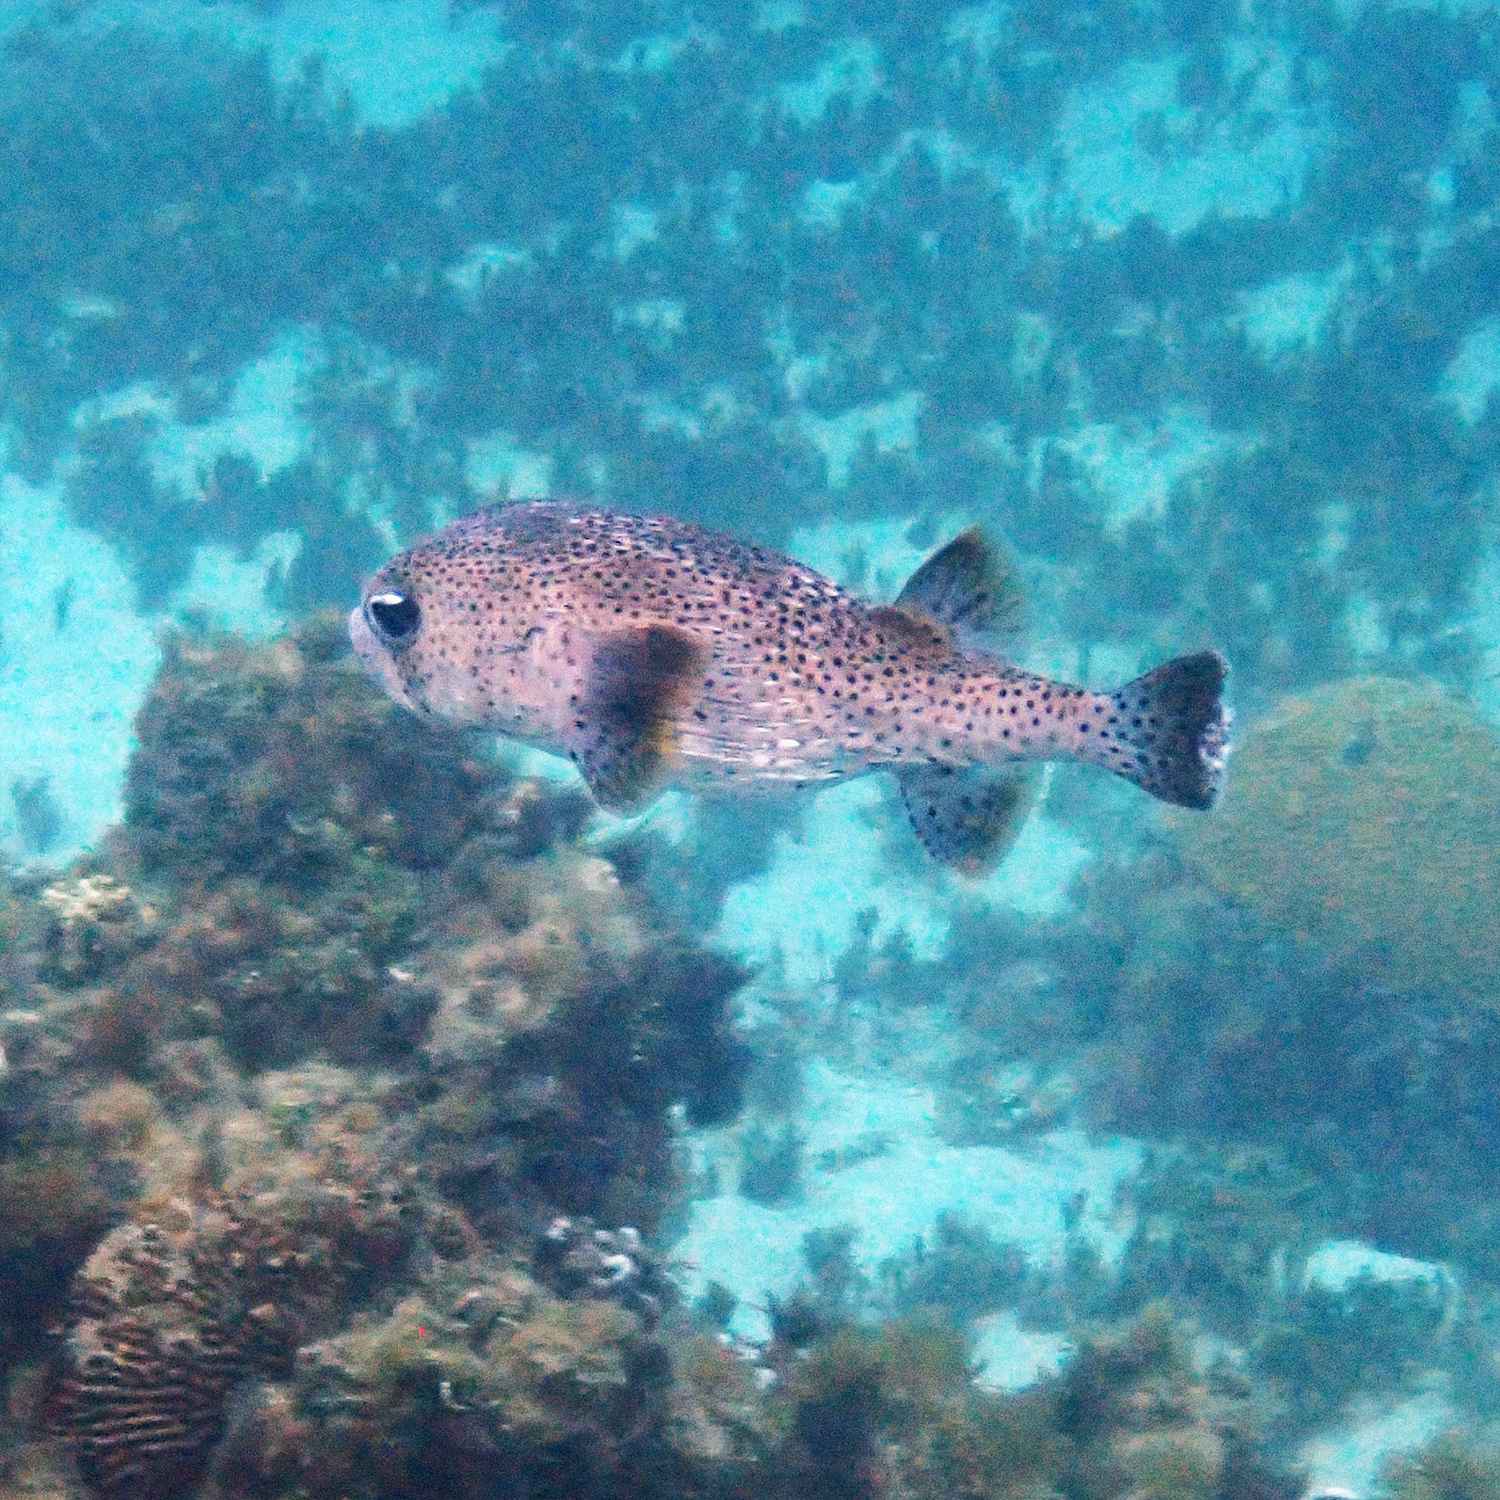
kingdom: Animalia
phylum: Chordata
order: Tetraodontiformes
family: Diodontidae
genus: Diodon
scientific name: Diodon hystrix
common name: Giant porcupinefish
